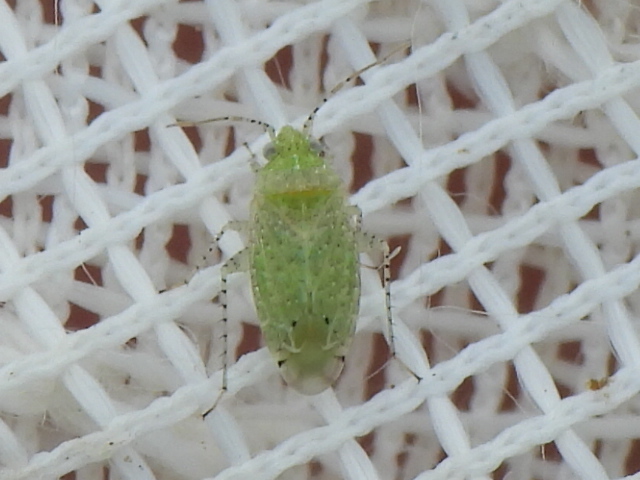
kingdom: Animalia
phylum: Arthropoda
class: Insecta
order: Hemiptera
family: Miridae
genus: Pseudatomoscelis
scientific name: Pseudatomoscelis seriatus
